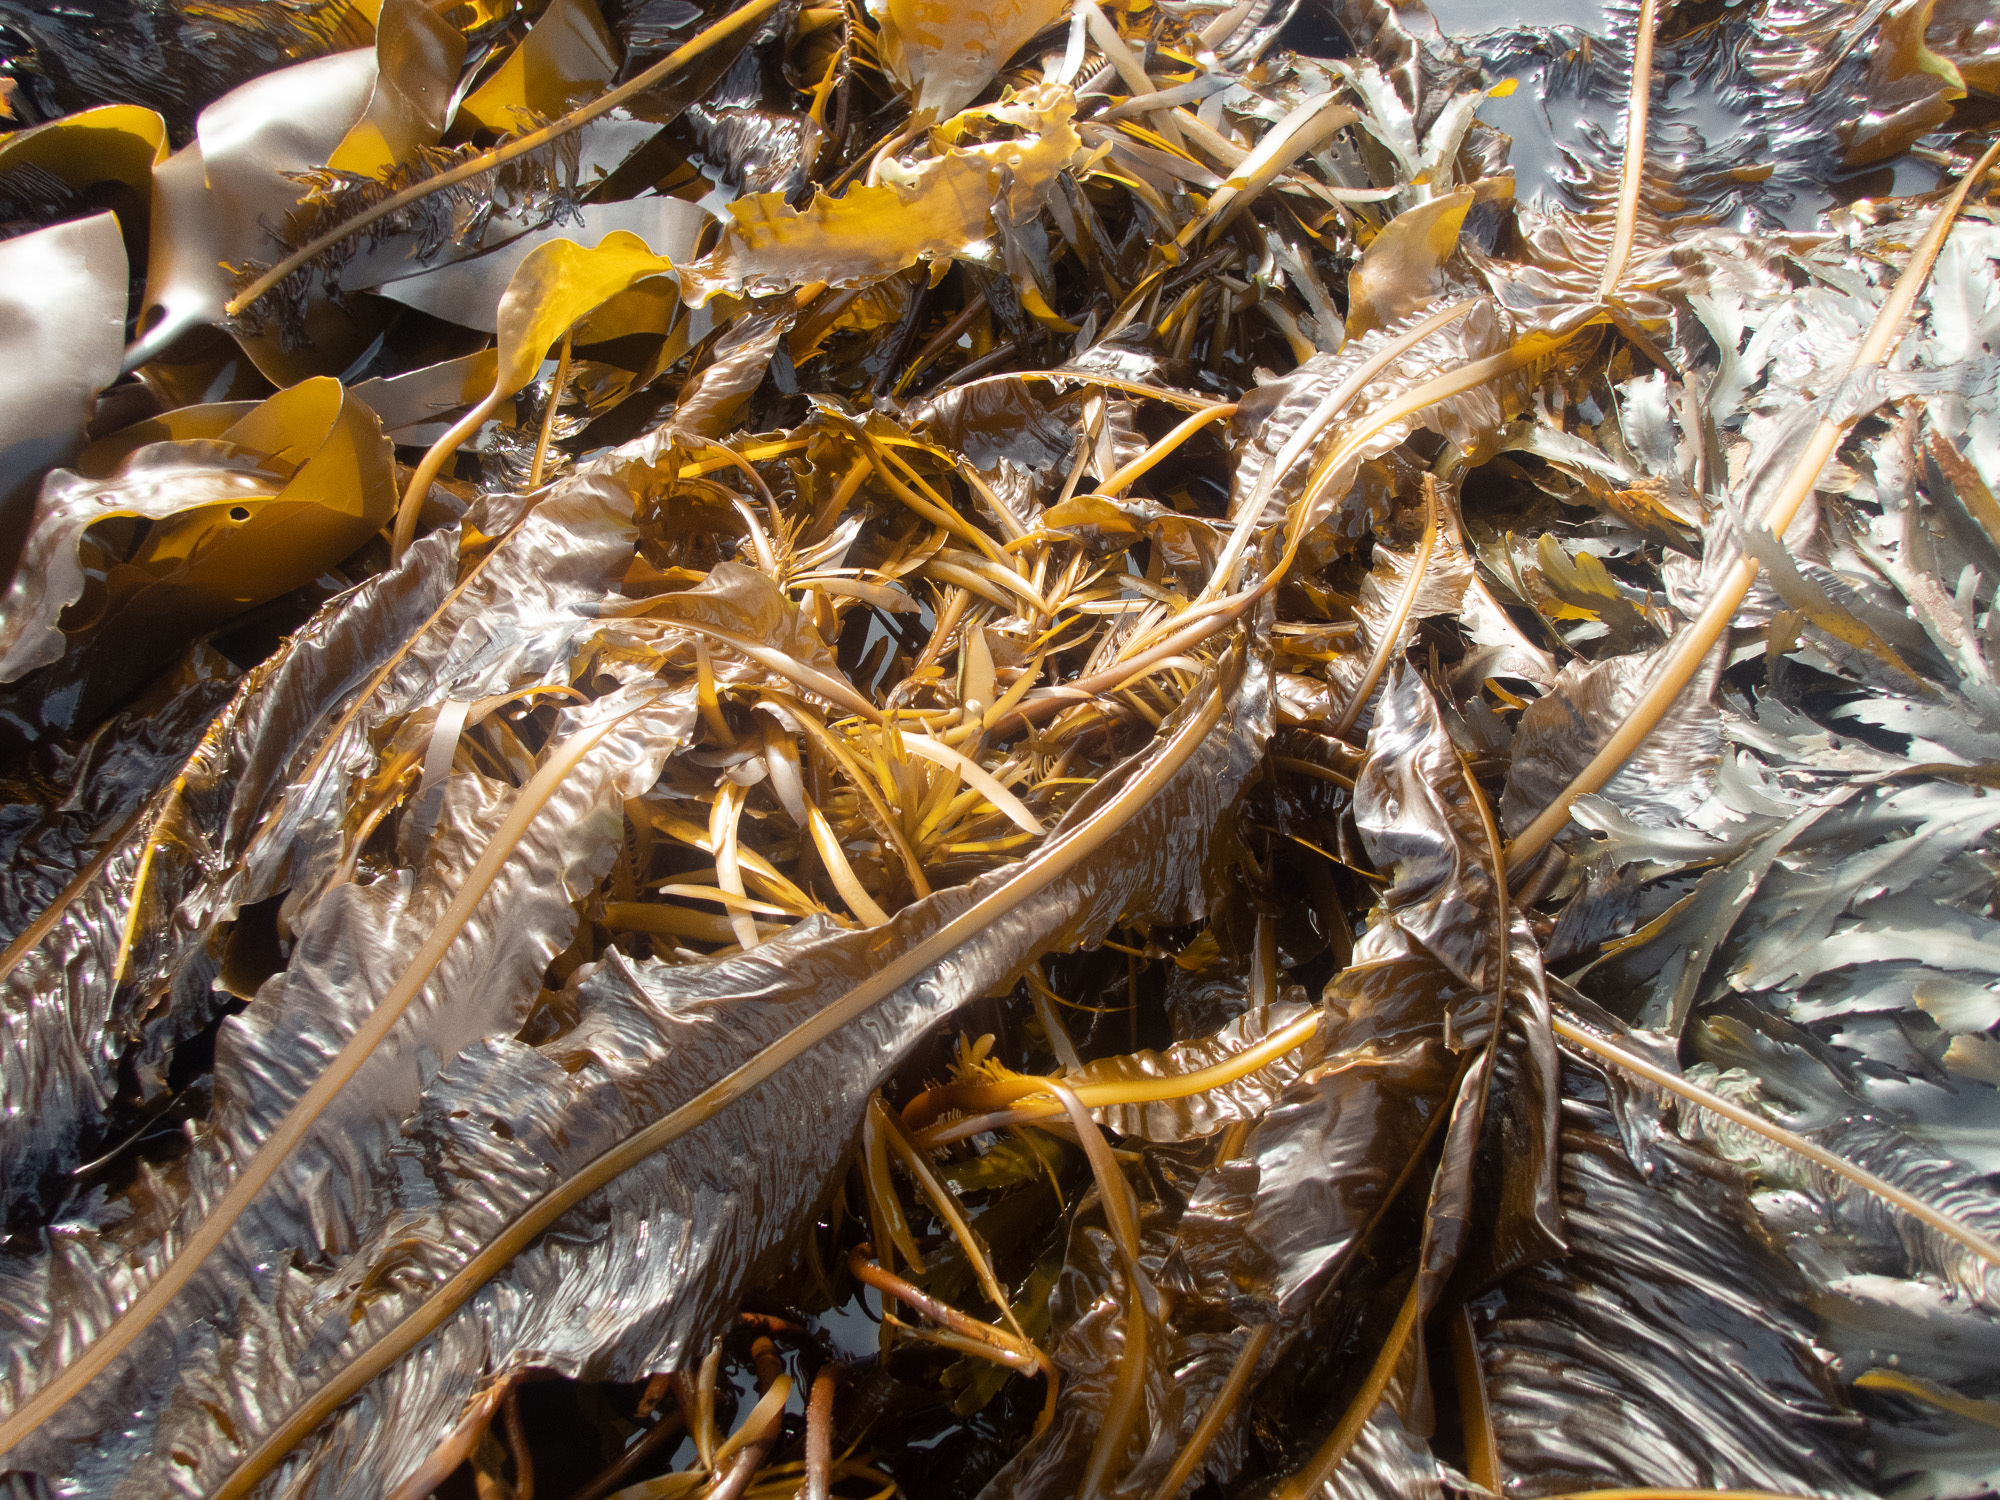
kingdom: Chromista
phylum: Ochrophyta
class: Phaeophyceae
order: Laminariales
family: Alariaceae
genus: Alaria
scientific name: Alaria esculenta
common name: Dabberlocks
